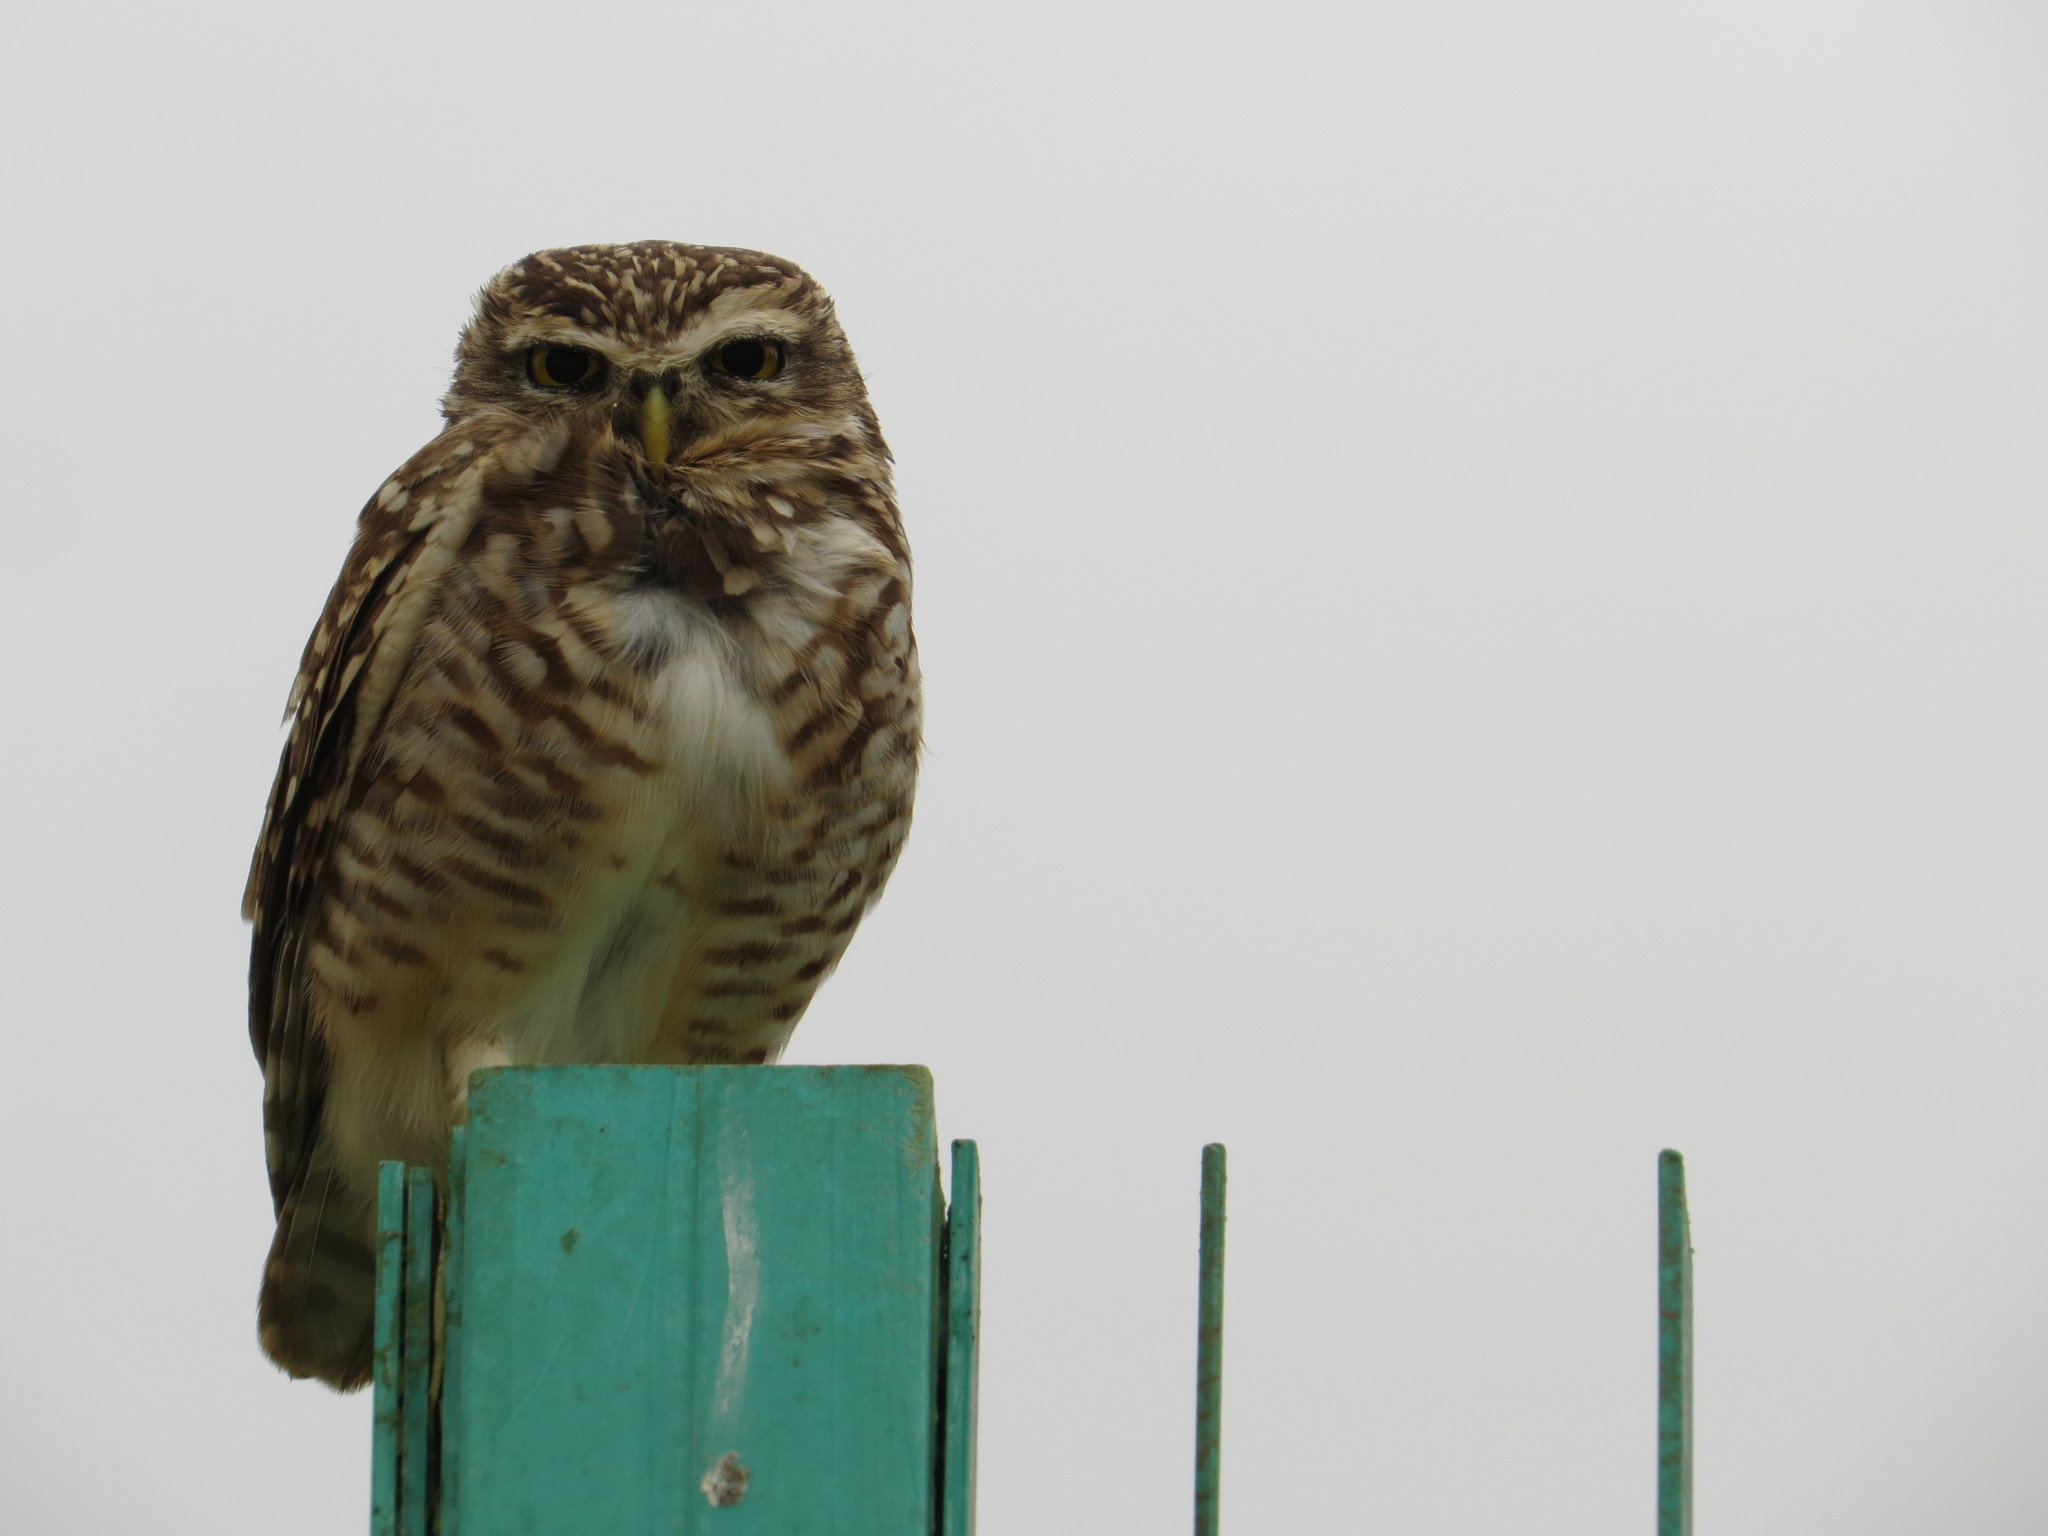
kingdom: Animalia
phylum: Chordata
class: Aves
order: Strigiformes
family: Strigidae
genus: Athene
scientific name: Athene cunicularia
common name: Burrowing owl
